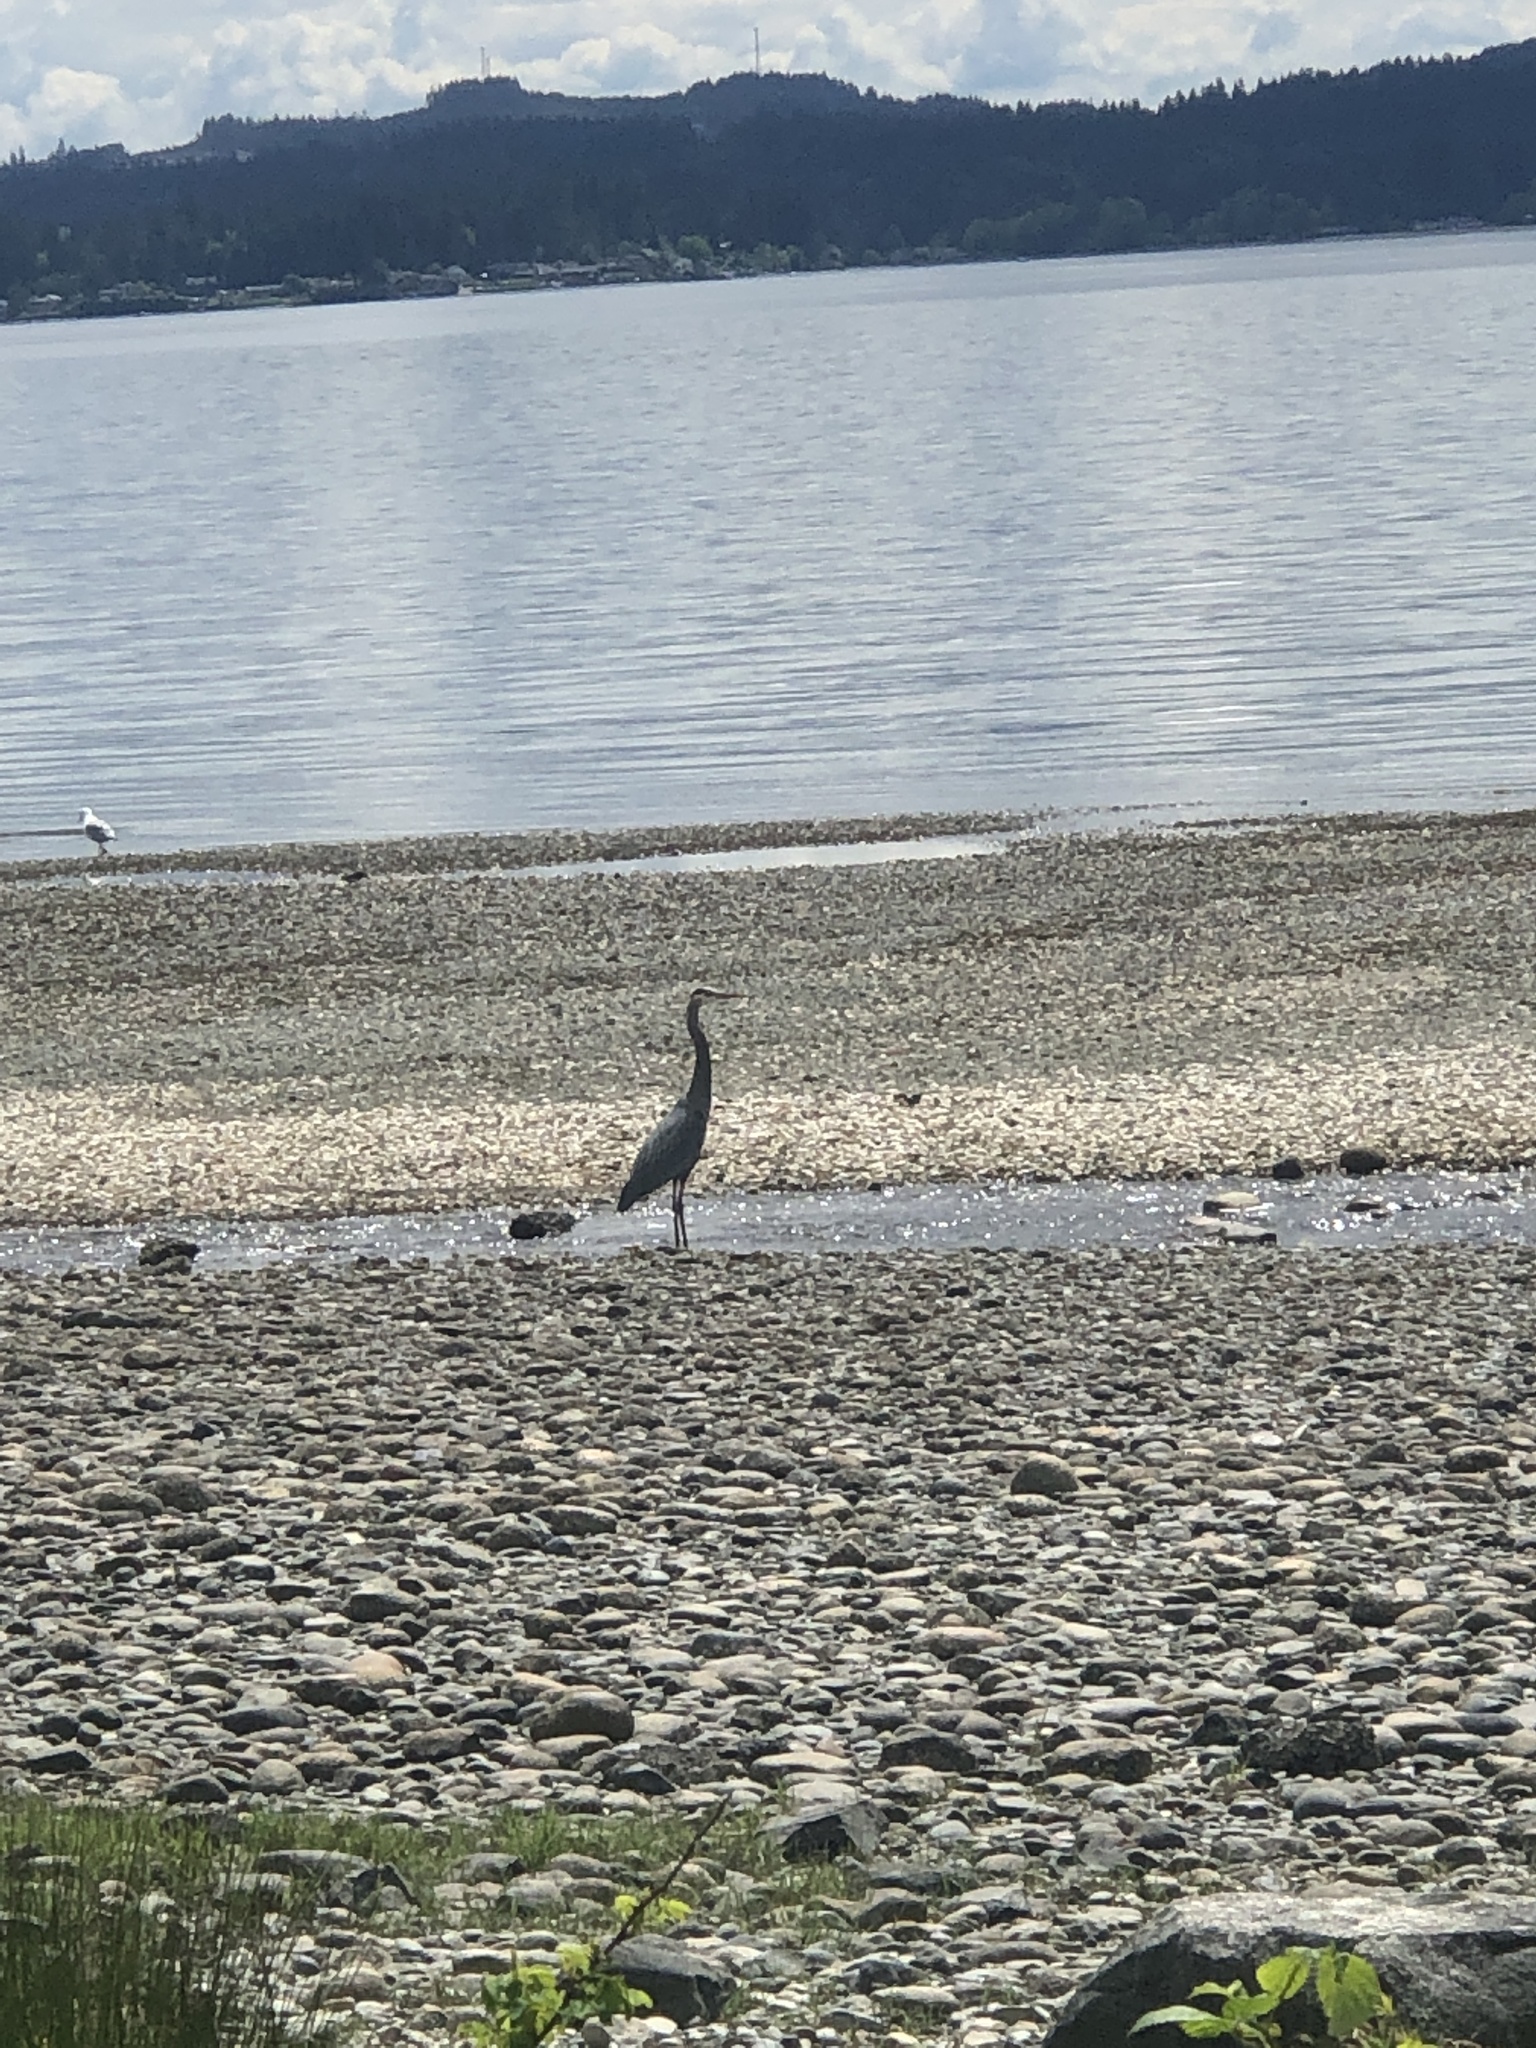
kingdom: Animalia
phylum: Chordata
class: Aves
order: Pelecaniformes
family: Ardeidae
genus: Ardea
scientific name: Ardea herodias
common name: Great blue heron
